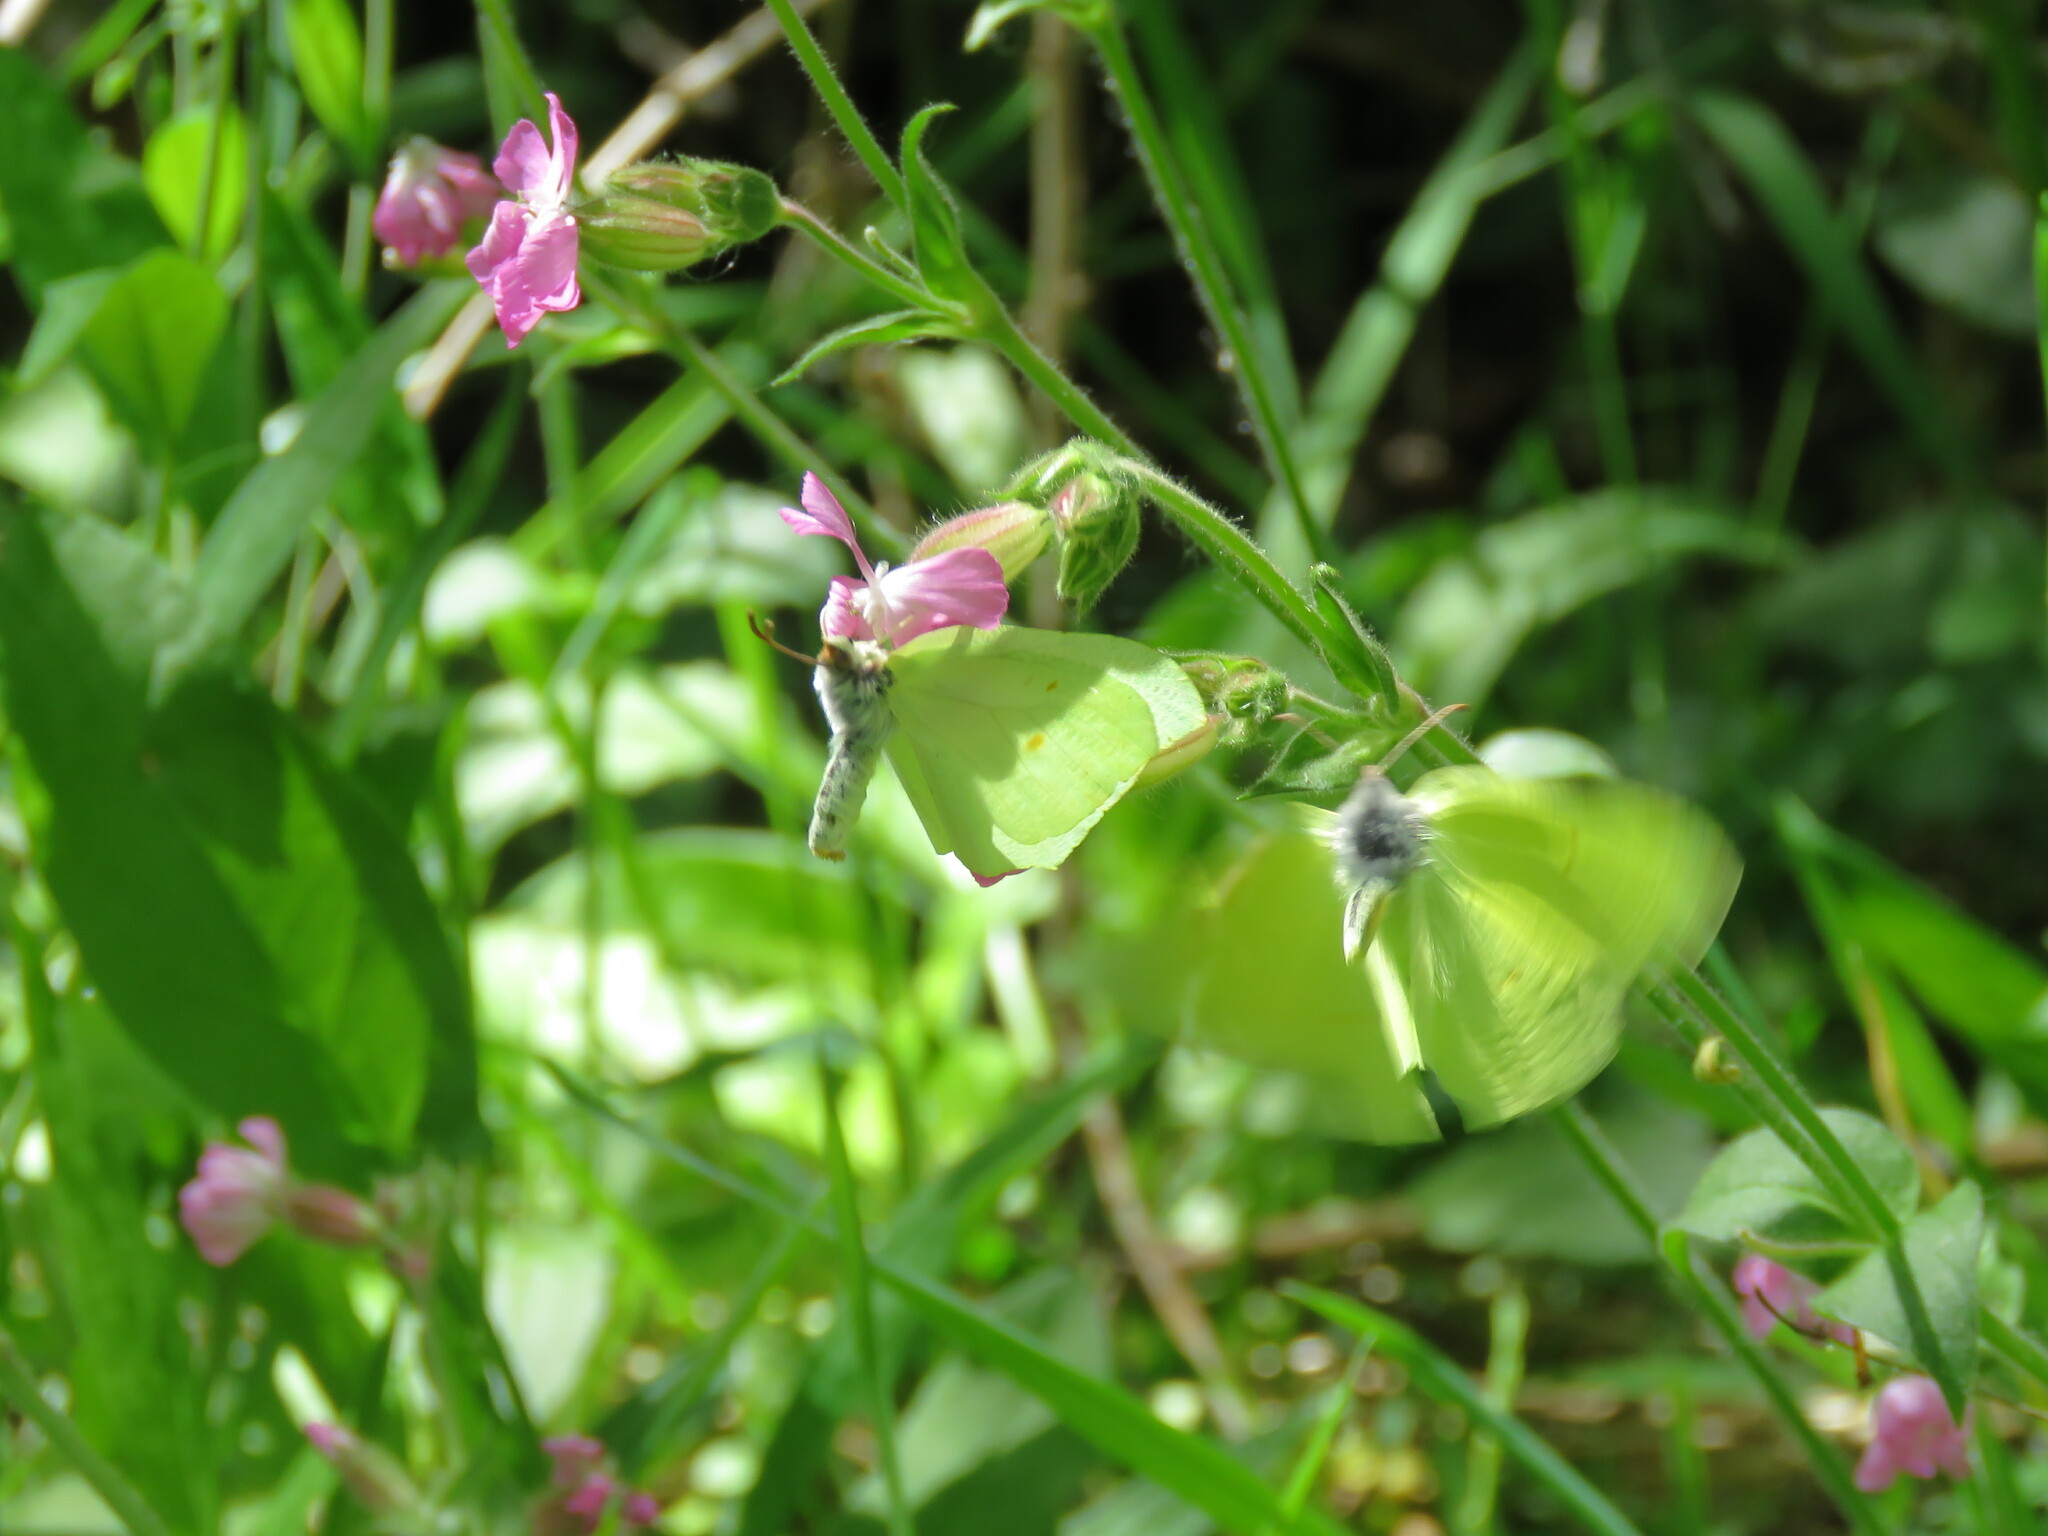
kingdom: Animalia
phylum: Arthropoda
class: Insecta
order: Lepidoptera
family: Pieridae
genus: Gonepteryx
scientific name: Gonepteryx rhamni
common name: Brimstone
